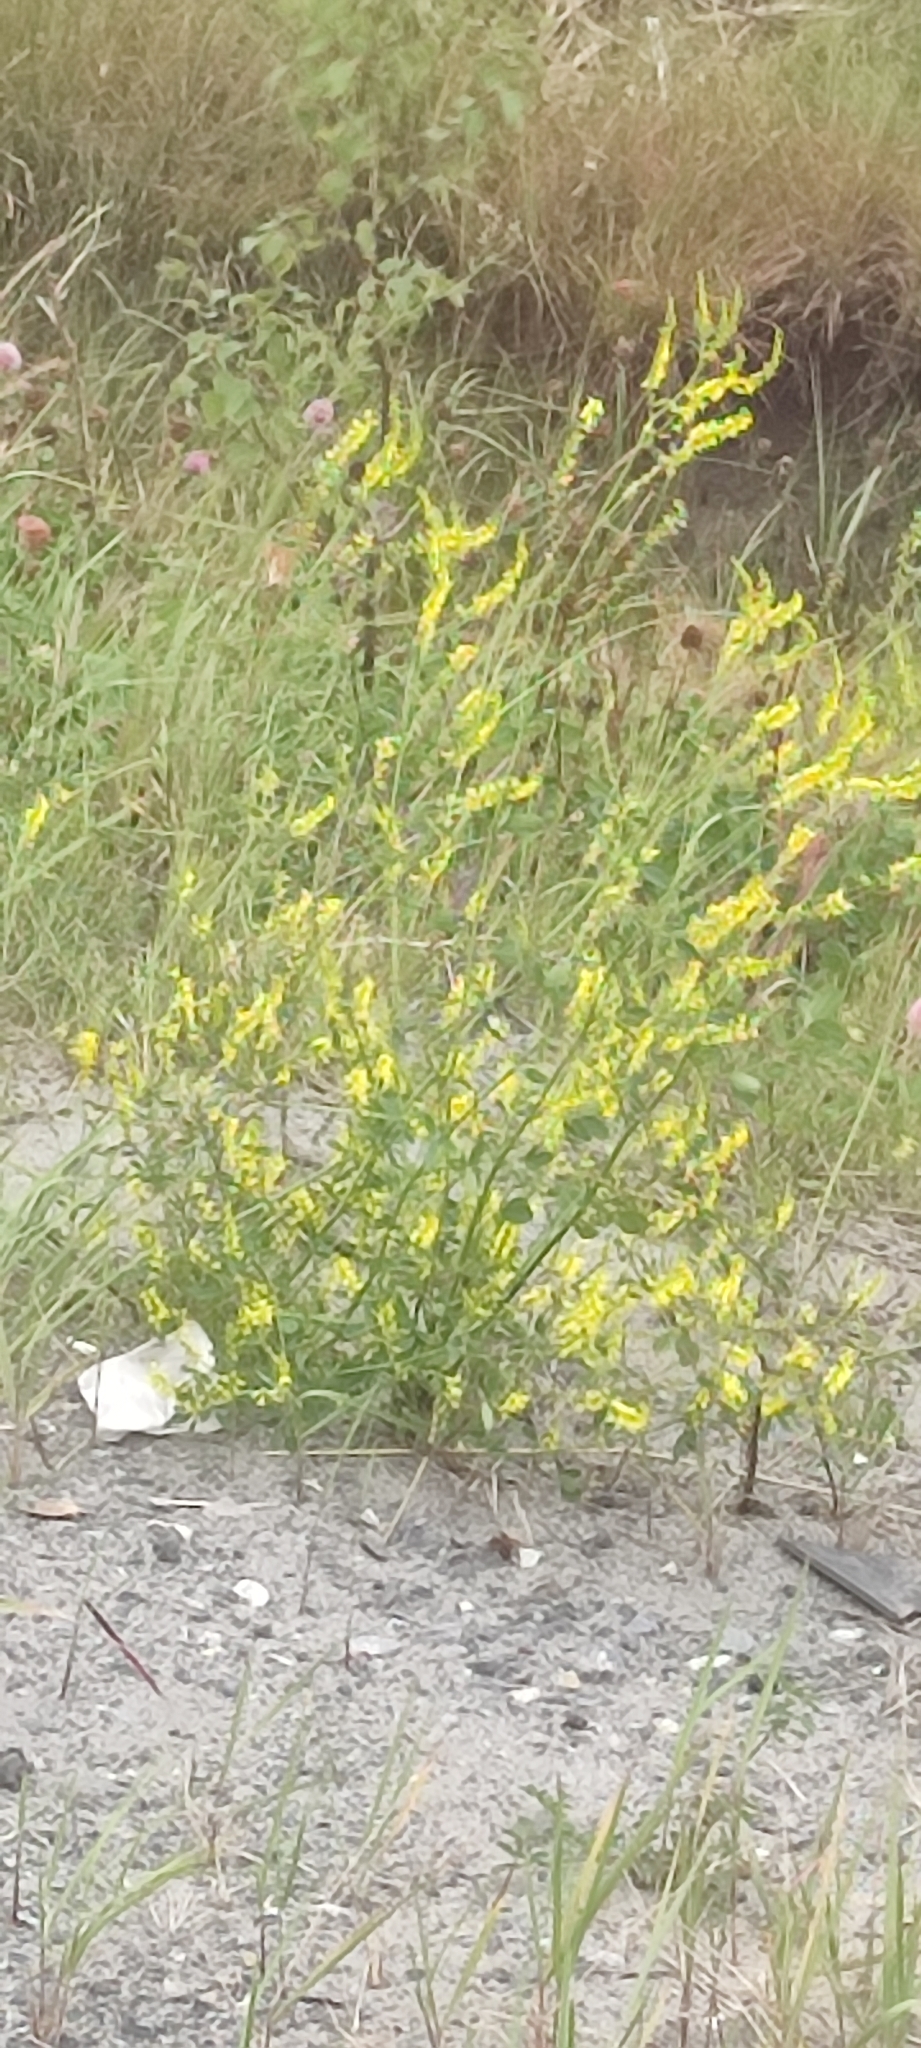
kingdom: Plantae
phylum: Tracheophyta
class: Magnoliopsida
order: Fabales
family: Fabaceae
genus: Melilotus
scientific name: Melilotus officinalis
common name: Sweetclover
